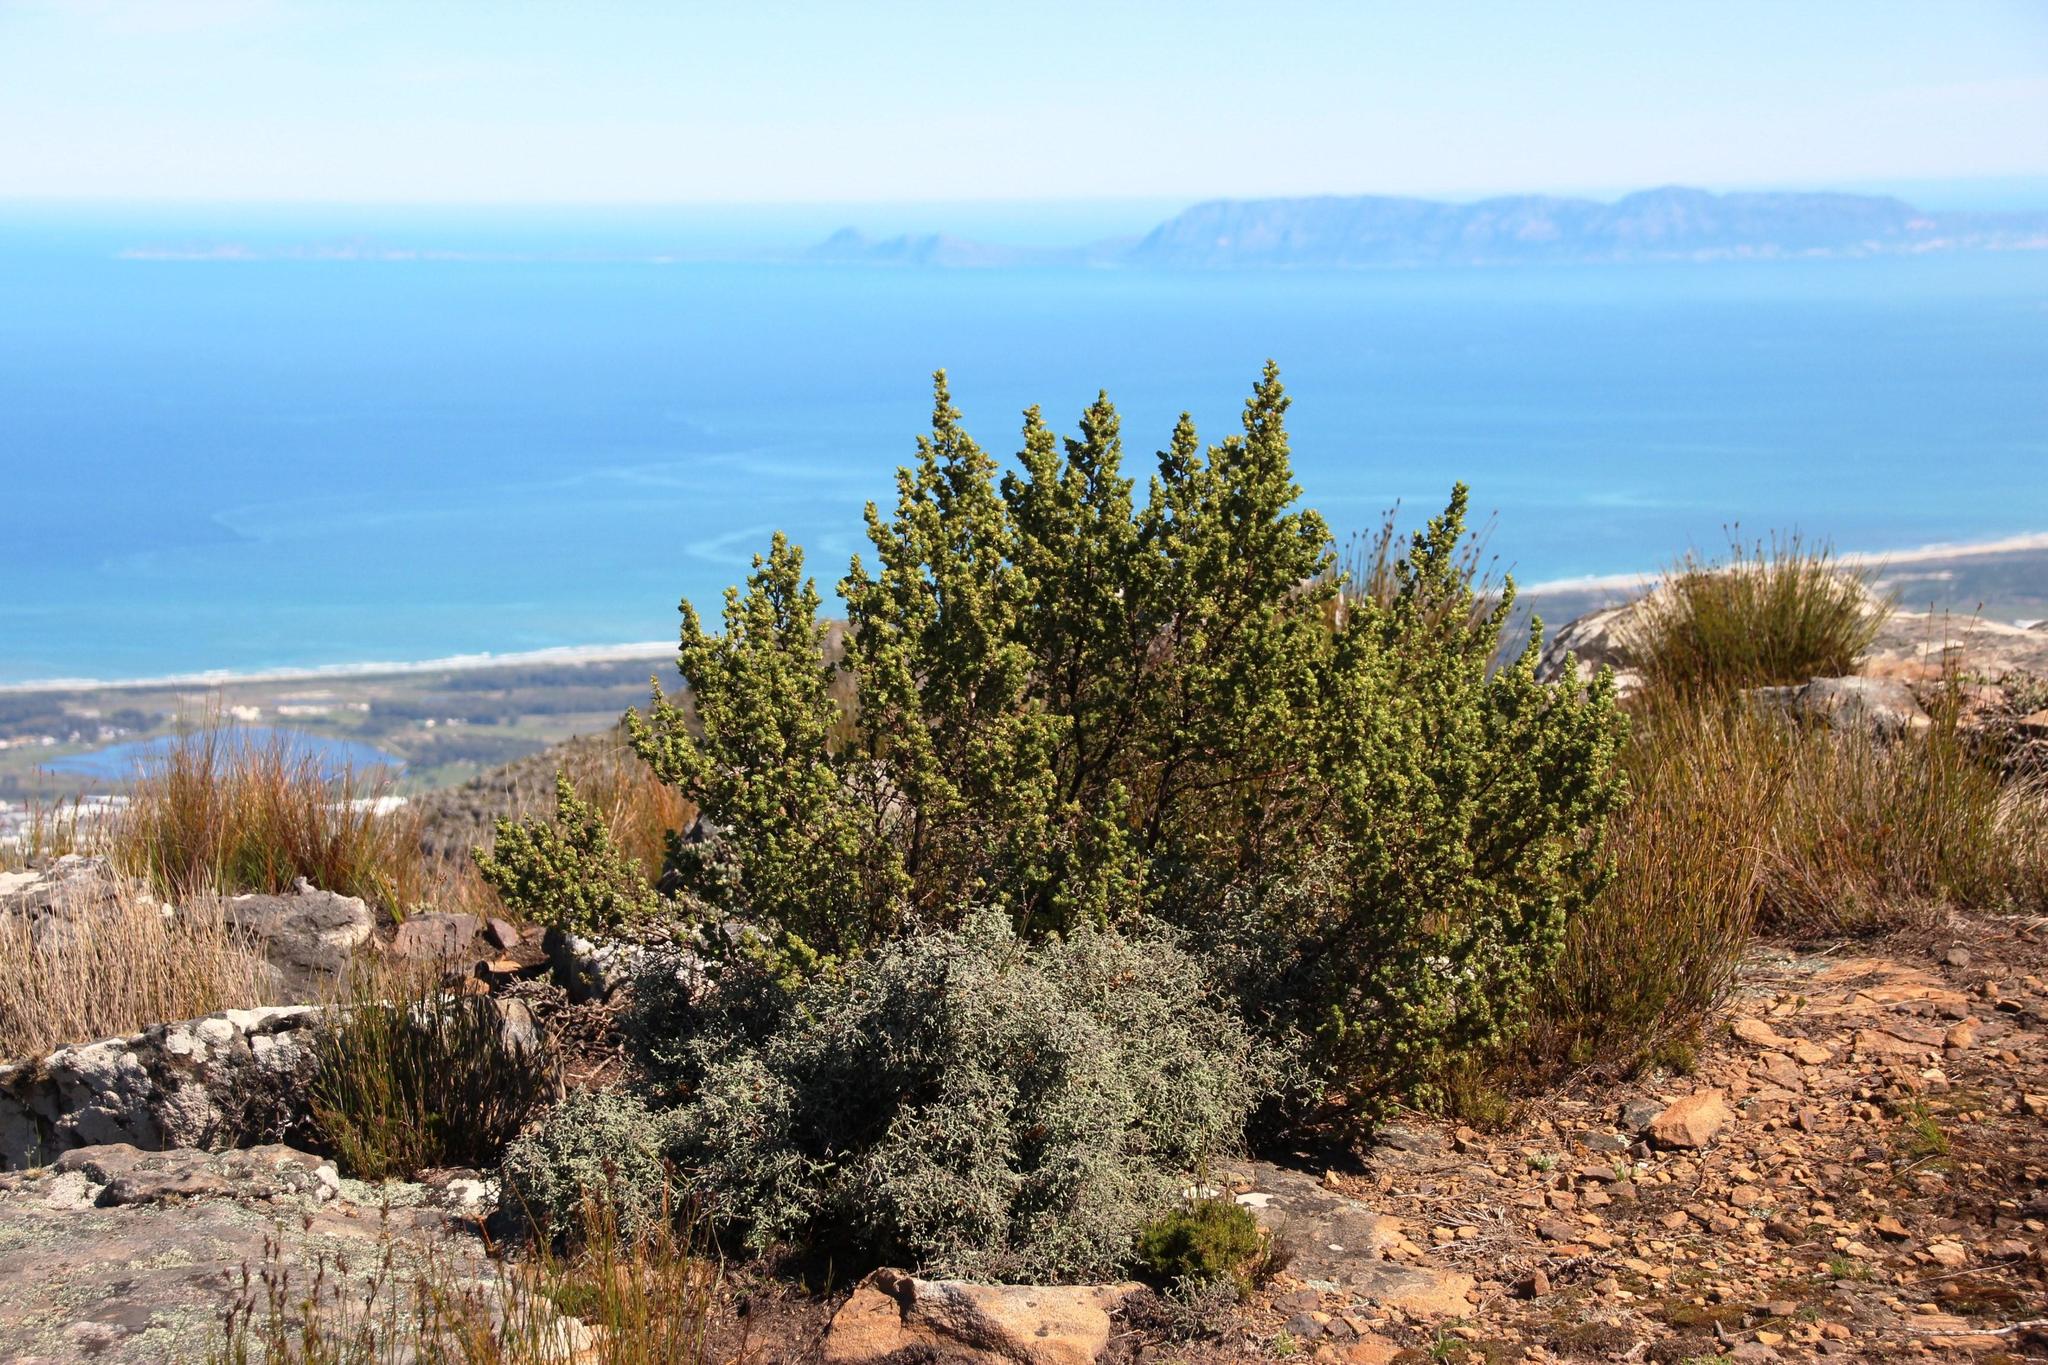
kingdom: Plantae
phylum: Tracheophyta
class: Magnoliopsida
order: Rosales
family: Rosaceae
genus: Cliffortia
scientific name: Cliffortia polygonifolia
